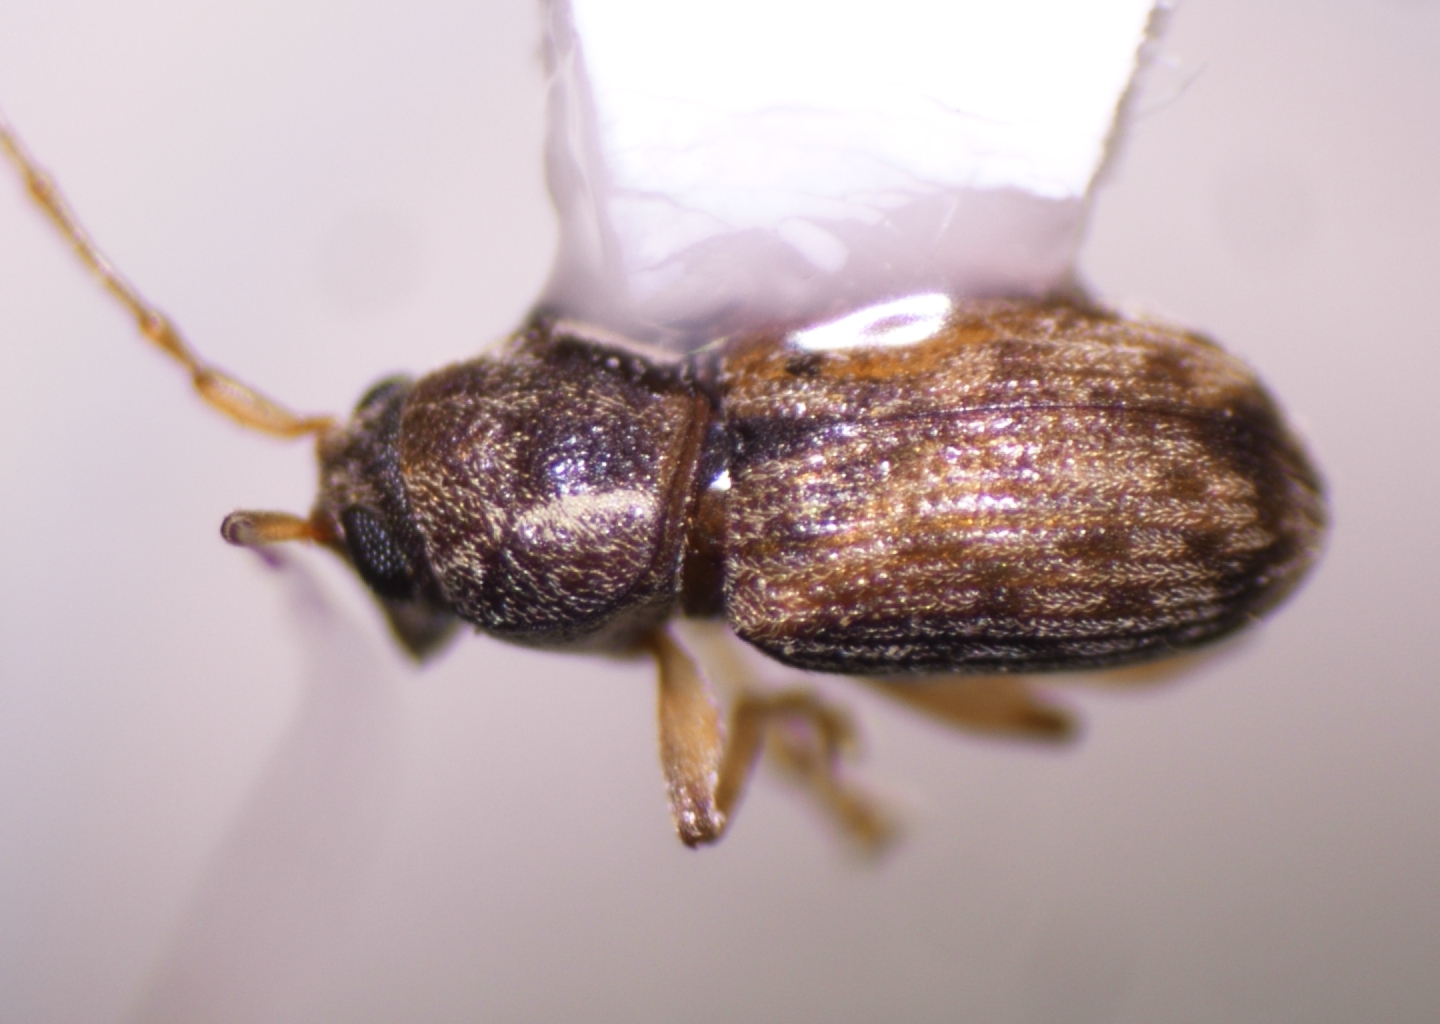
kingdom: Animalia
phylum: Arthropoda
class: Insecta
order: Coleoptera
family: Anthribidae
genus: Dinema
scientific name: Dinema filicornis
